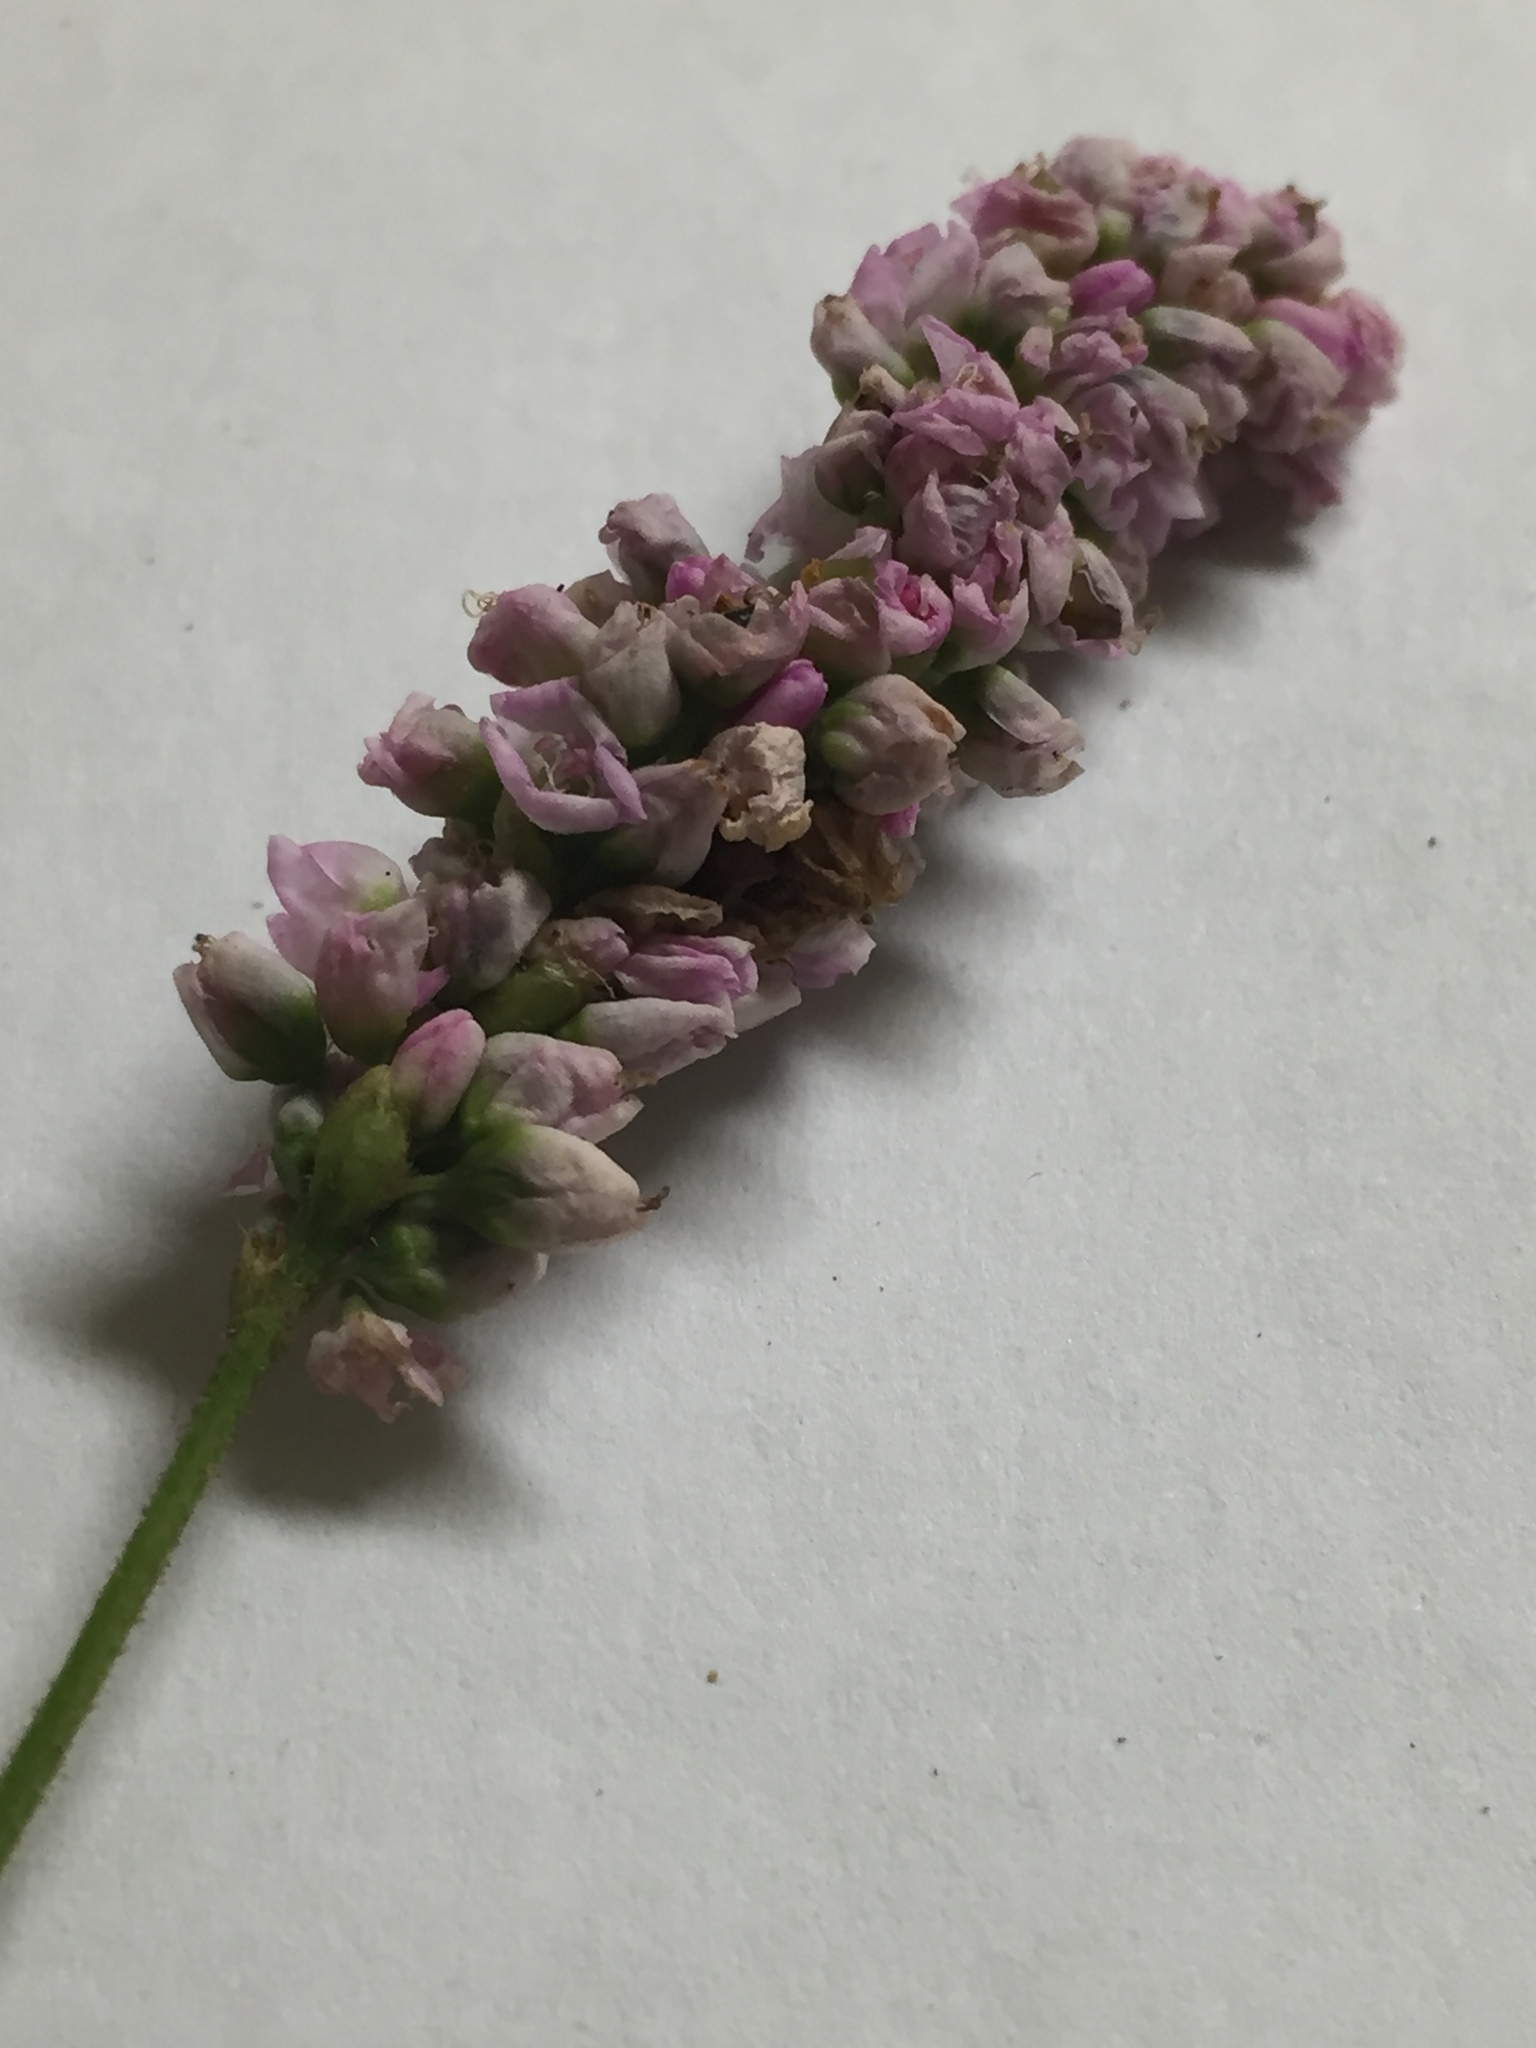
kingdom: Plantae
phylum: Tracheophyta
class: Magnoliopsida
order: Caryophyllales
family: Polygonaceae
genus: Persicaria
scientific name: Persicaria pensylvanica
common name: Pinkweed
